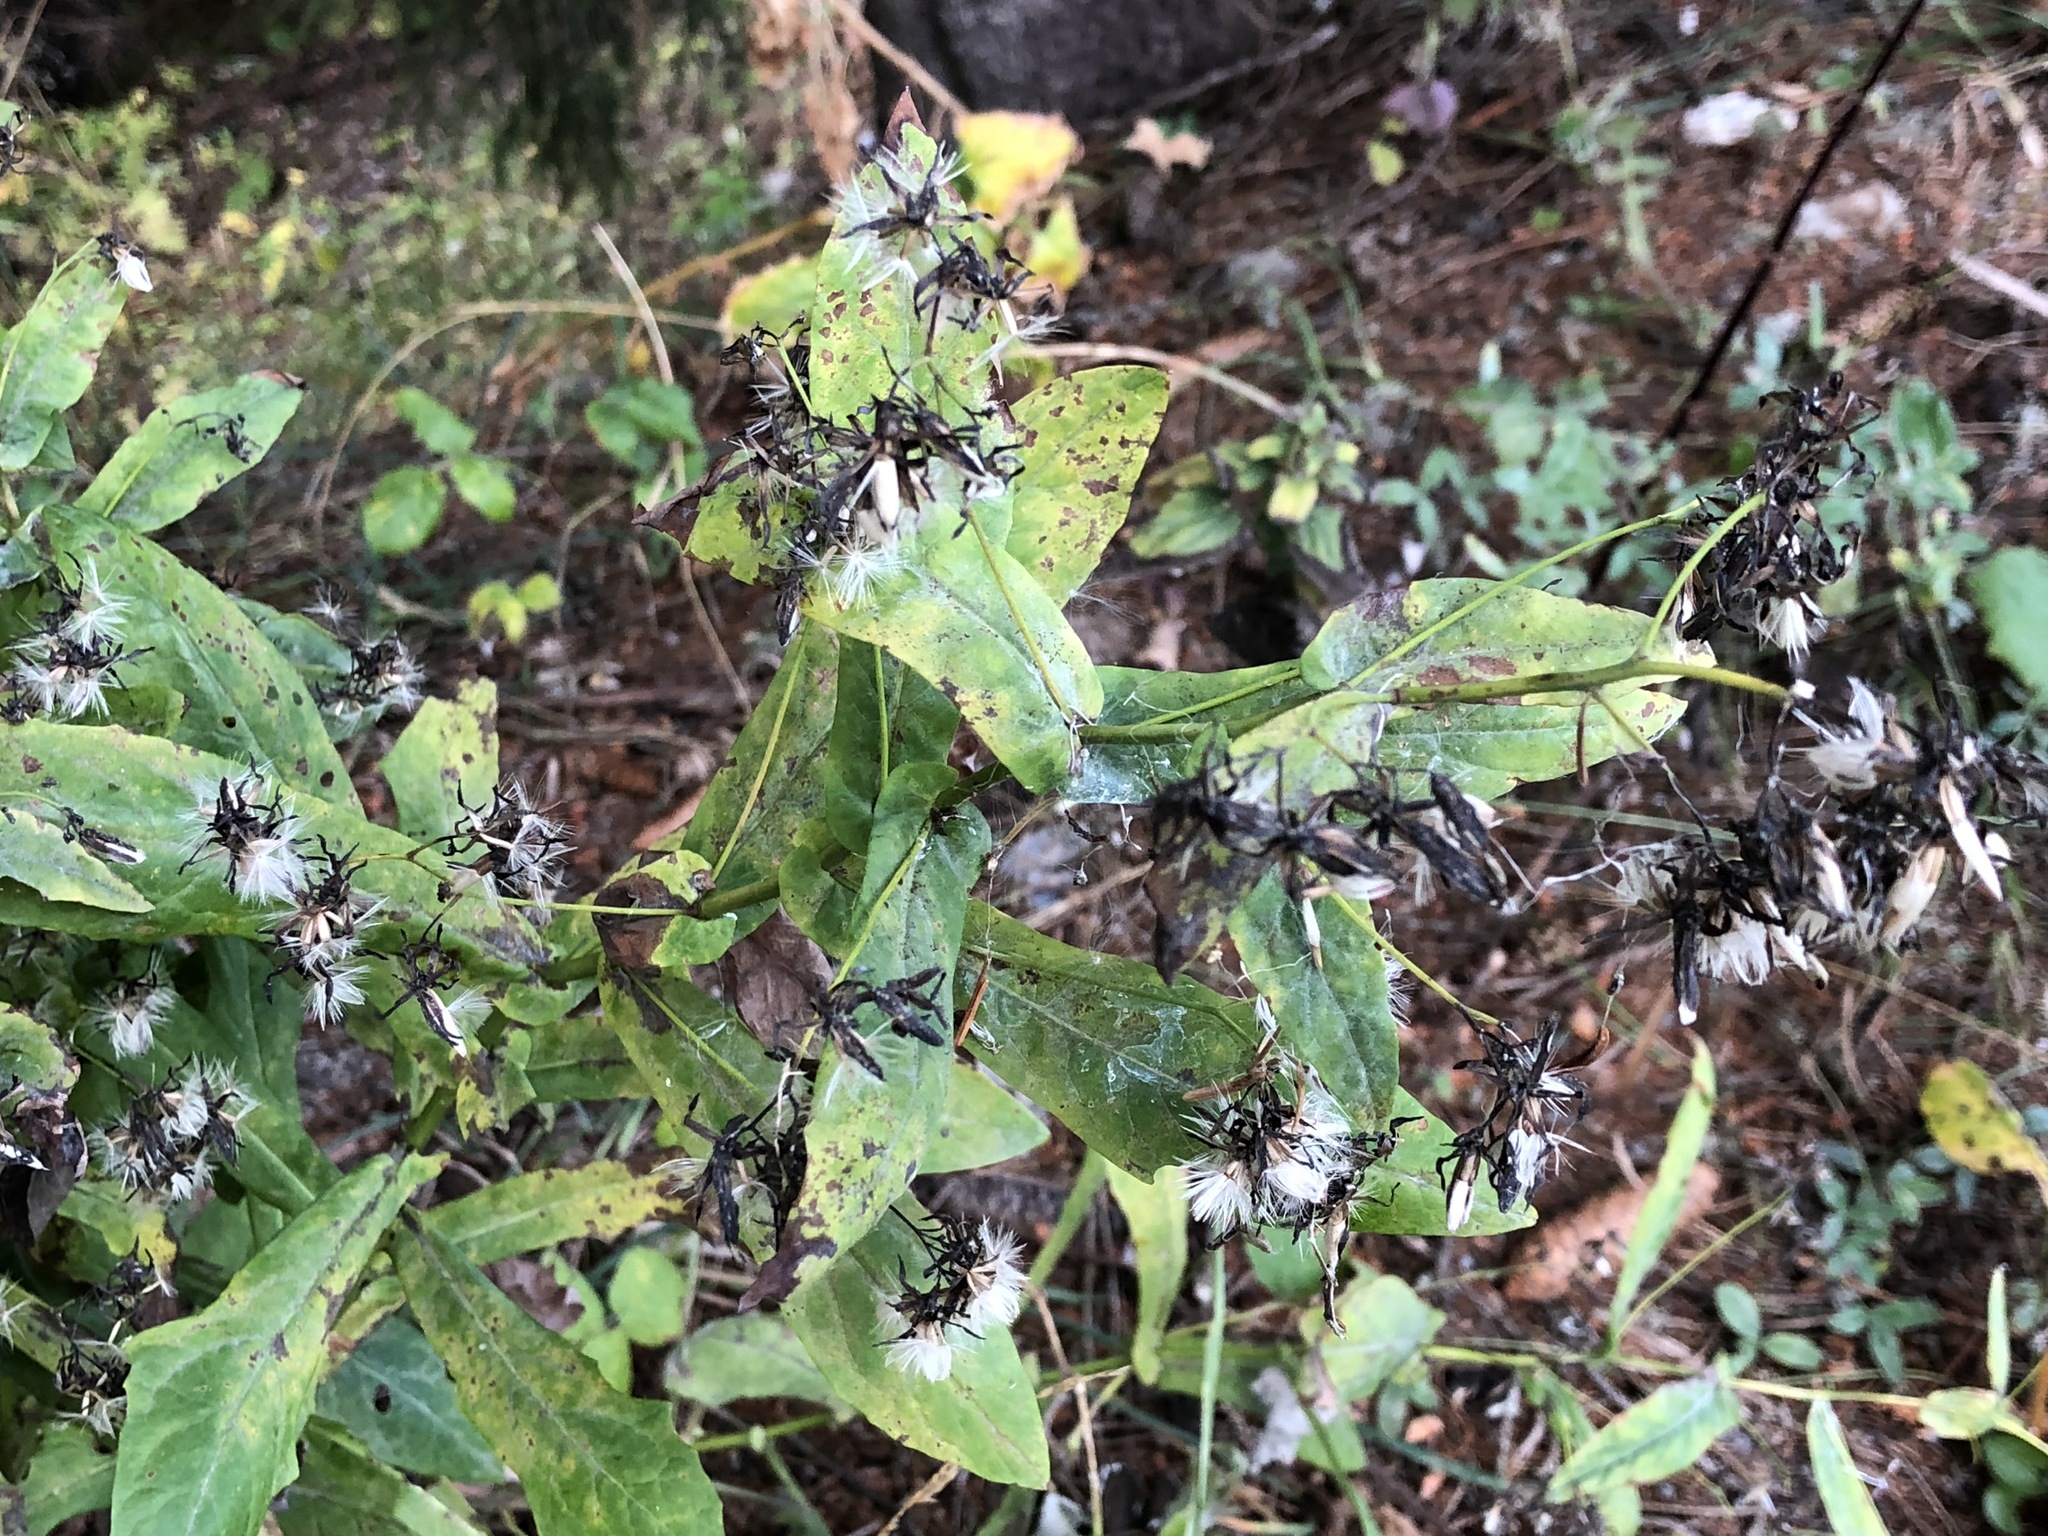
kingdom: Plantae
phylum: Tracheophyta
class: Magnoliopsida
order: Asterales
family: Asteraceae
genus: Prenanthes
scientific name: Prenanthes purpurea
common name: Purple lettuce
